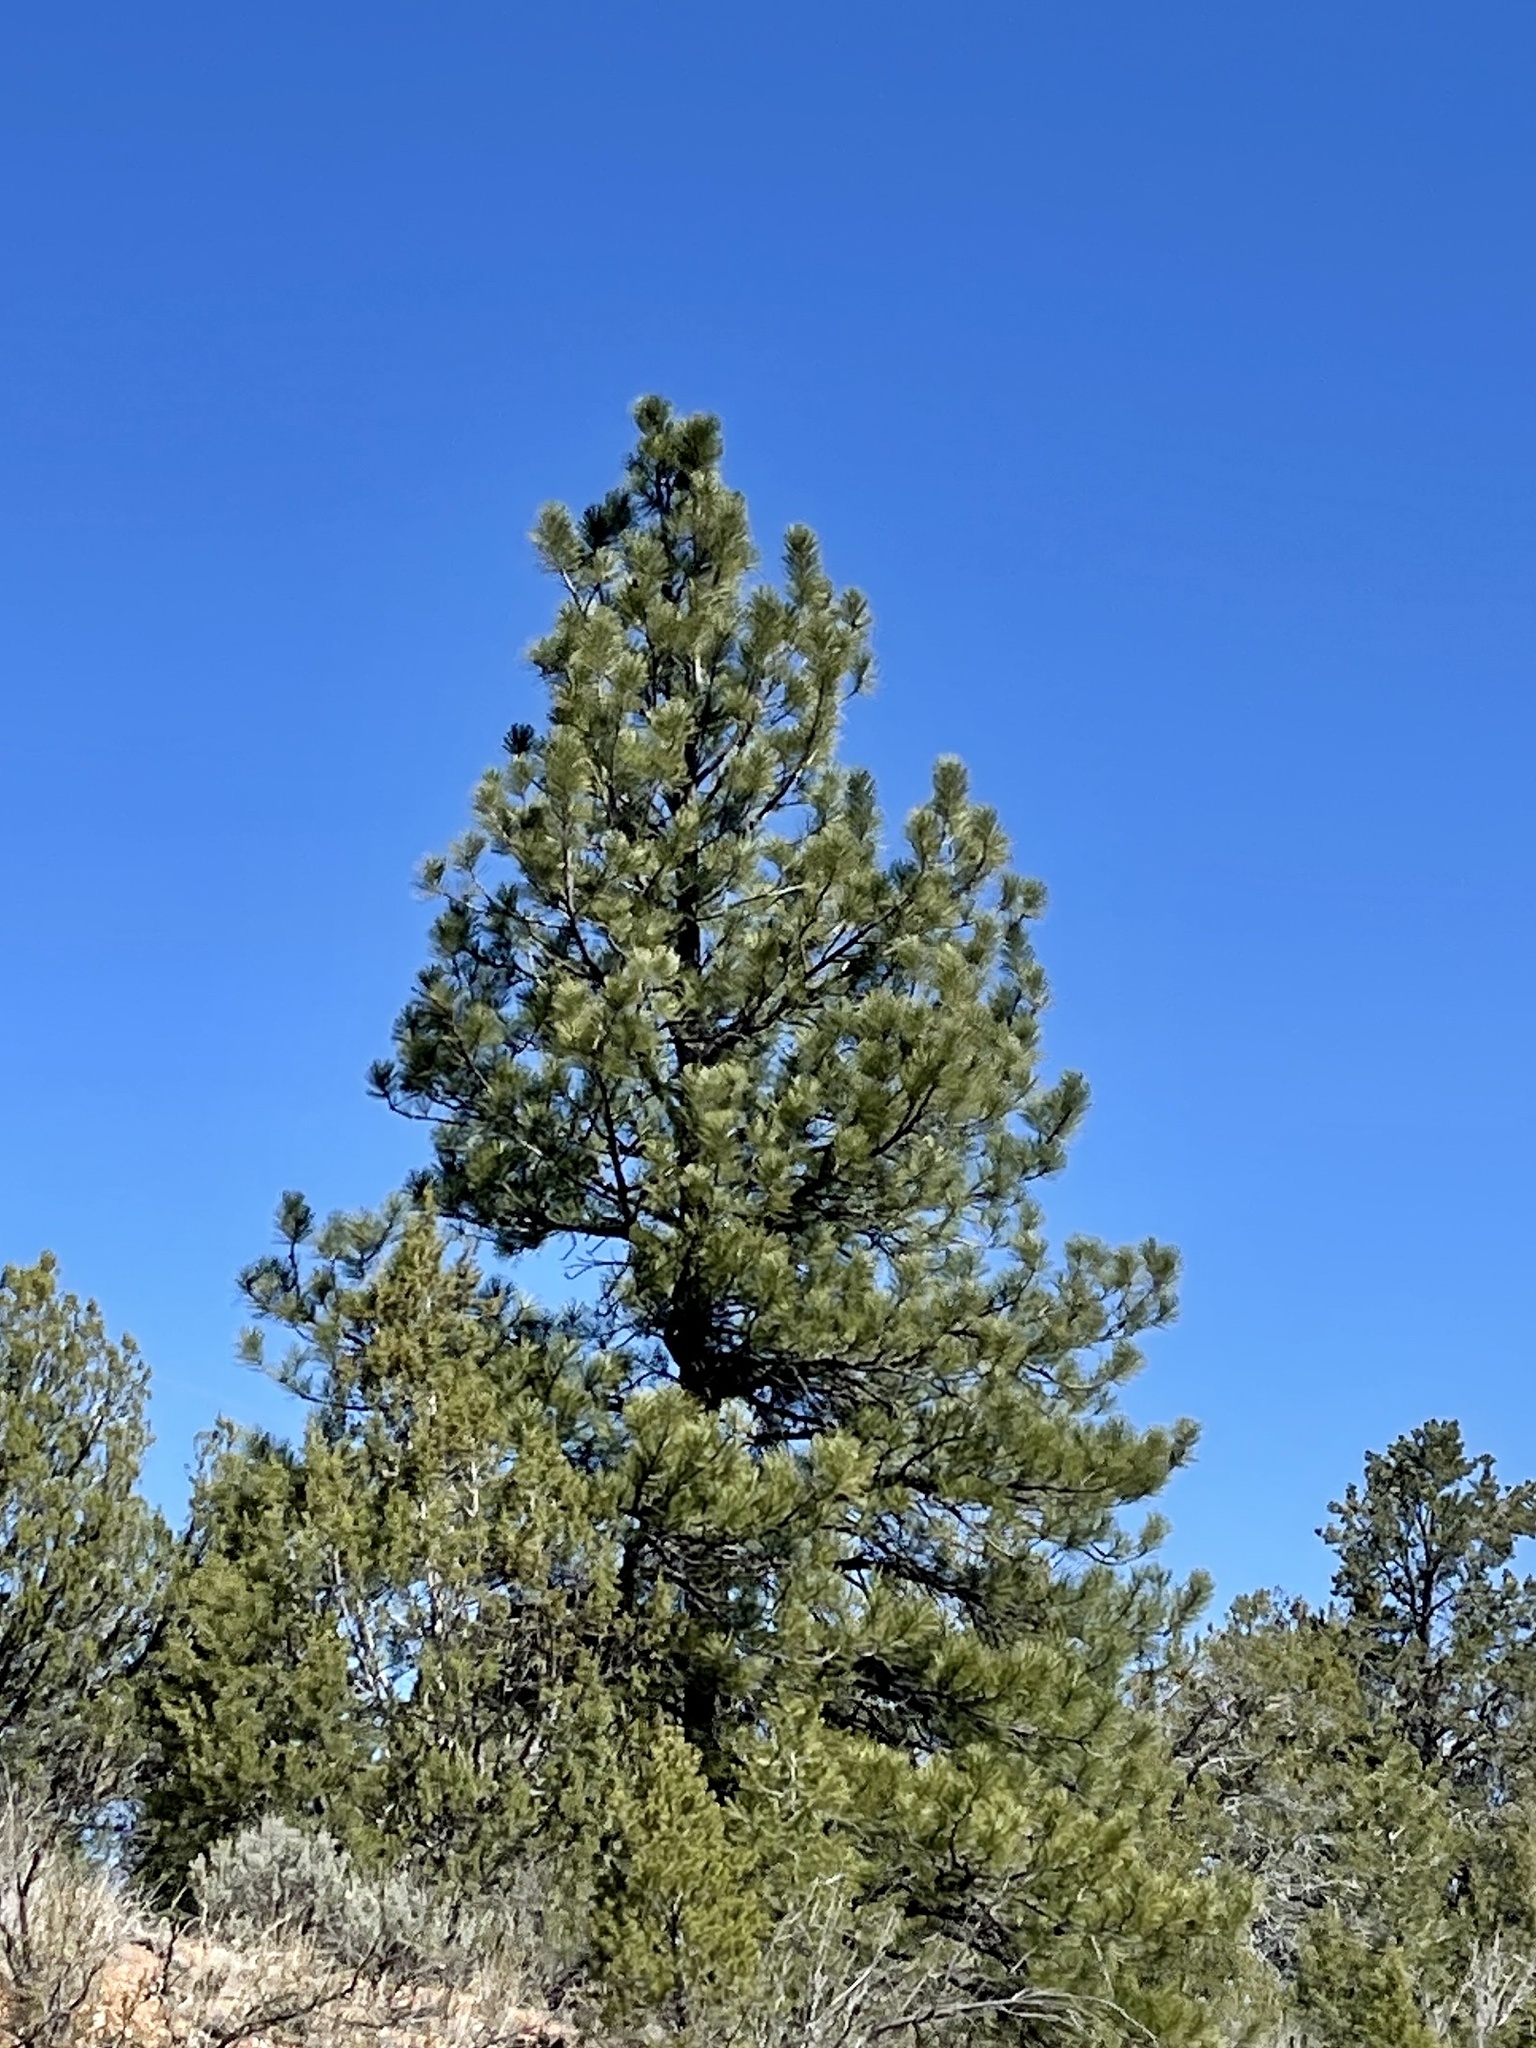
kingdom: Plantae
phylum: Tracheophyta
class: Pinopsida
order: Pinales
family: Pinaceae
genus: Pinus
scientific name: Pinus ponderosa
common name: Western yellow-pine
